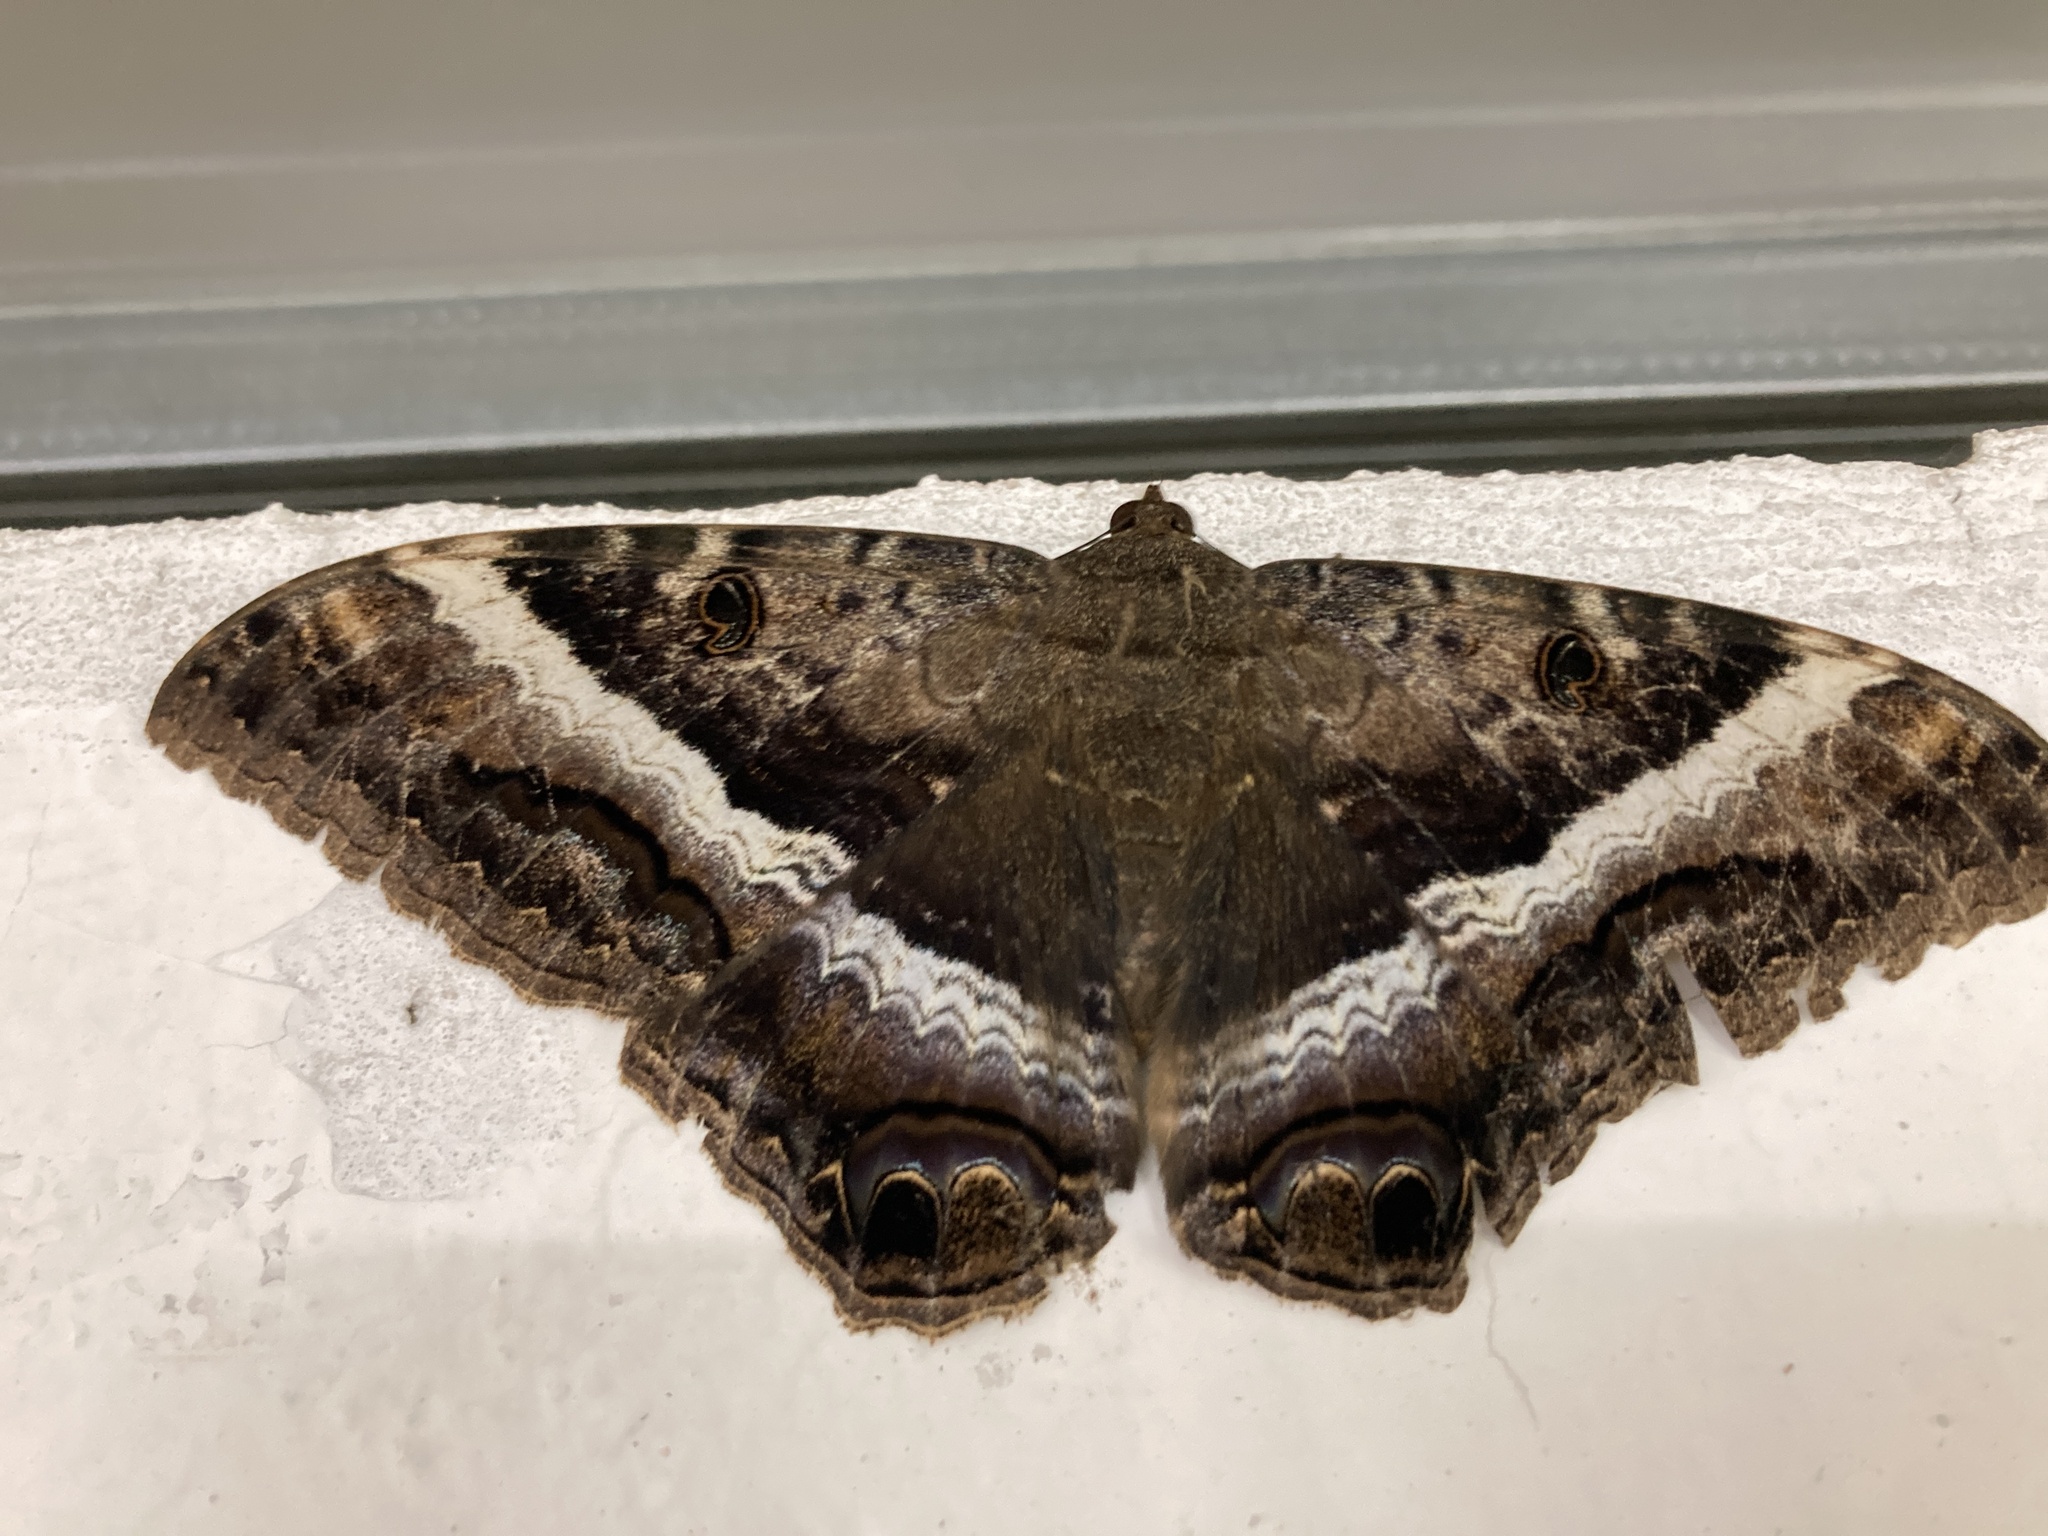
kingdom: Animalia
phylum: Arthropoda
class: Insecta
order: Lepidoptera
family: Erebidae
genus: Ascalapha
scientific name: Ascalapha odorata
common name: Black witch
